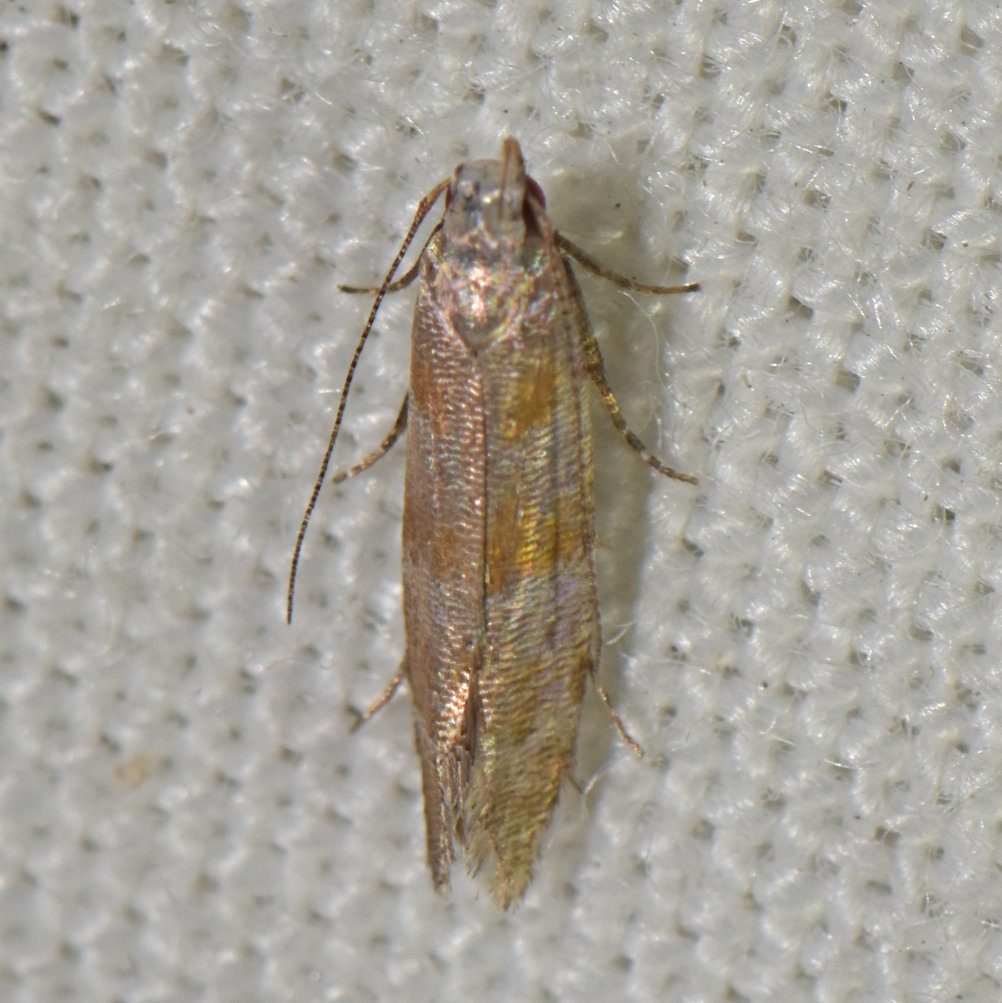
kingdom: Animalia
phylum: Arthropoda
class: Insecta
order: Lepidoptera
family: Gelechiidae
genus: Battaristis
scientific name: Battaristis vittella
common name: Orange stripe-backed moth
